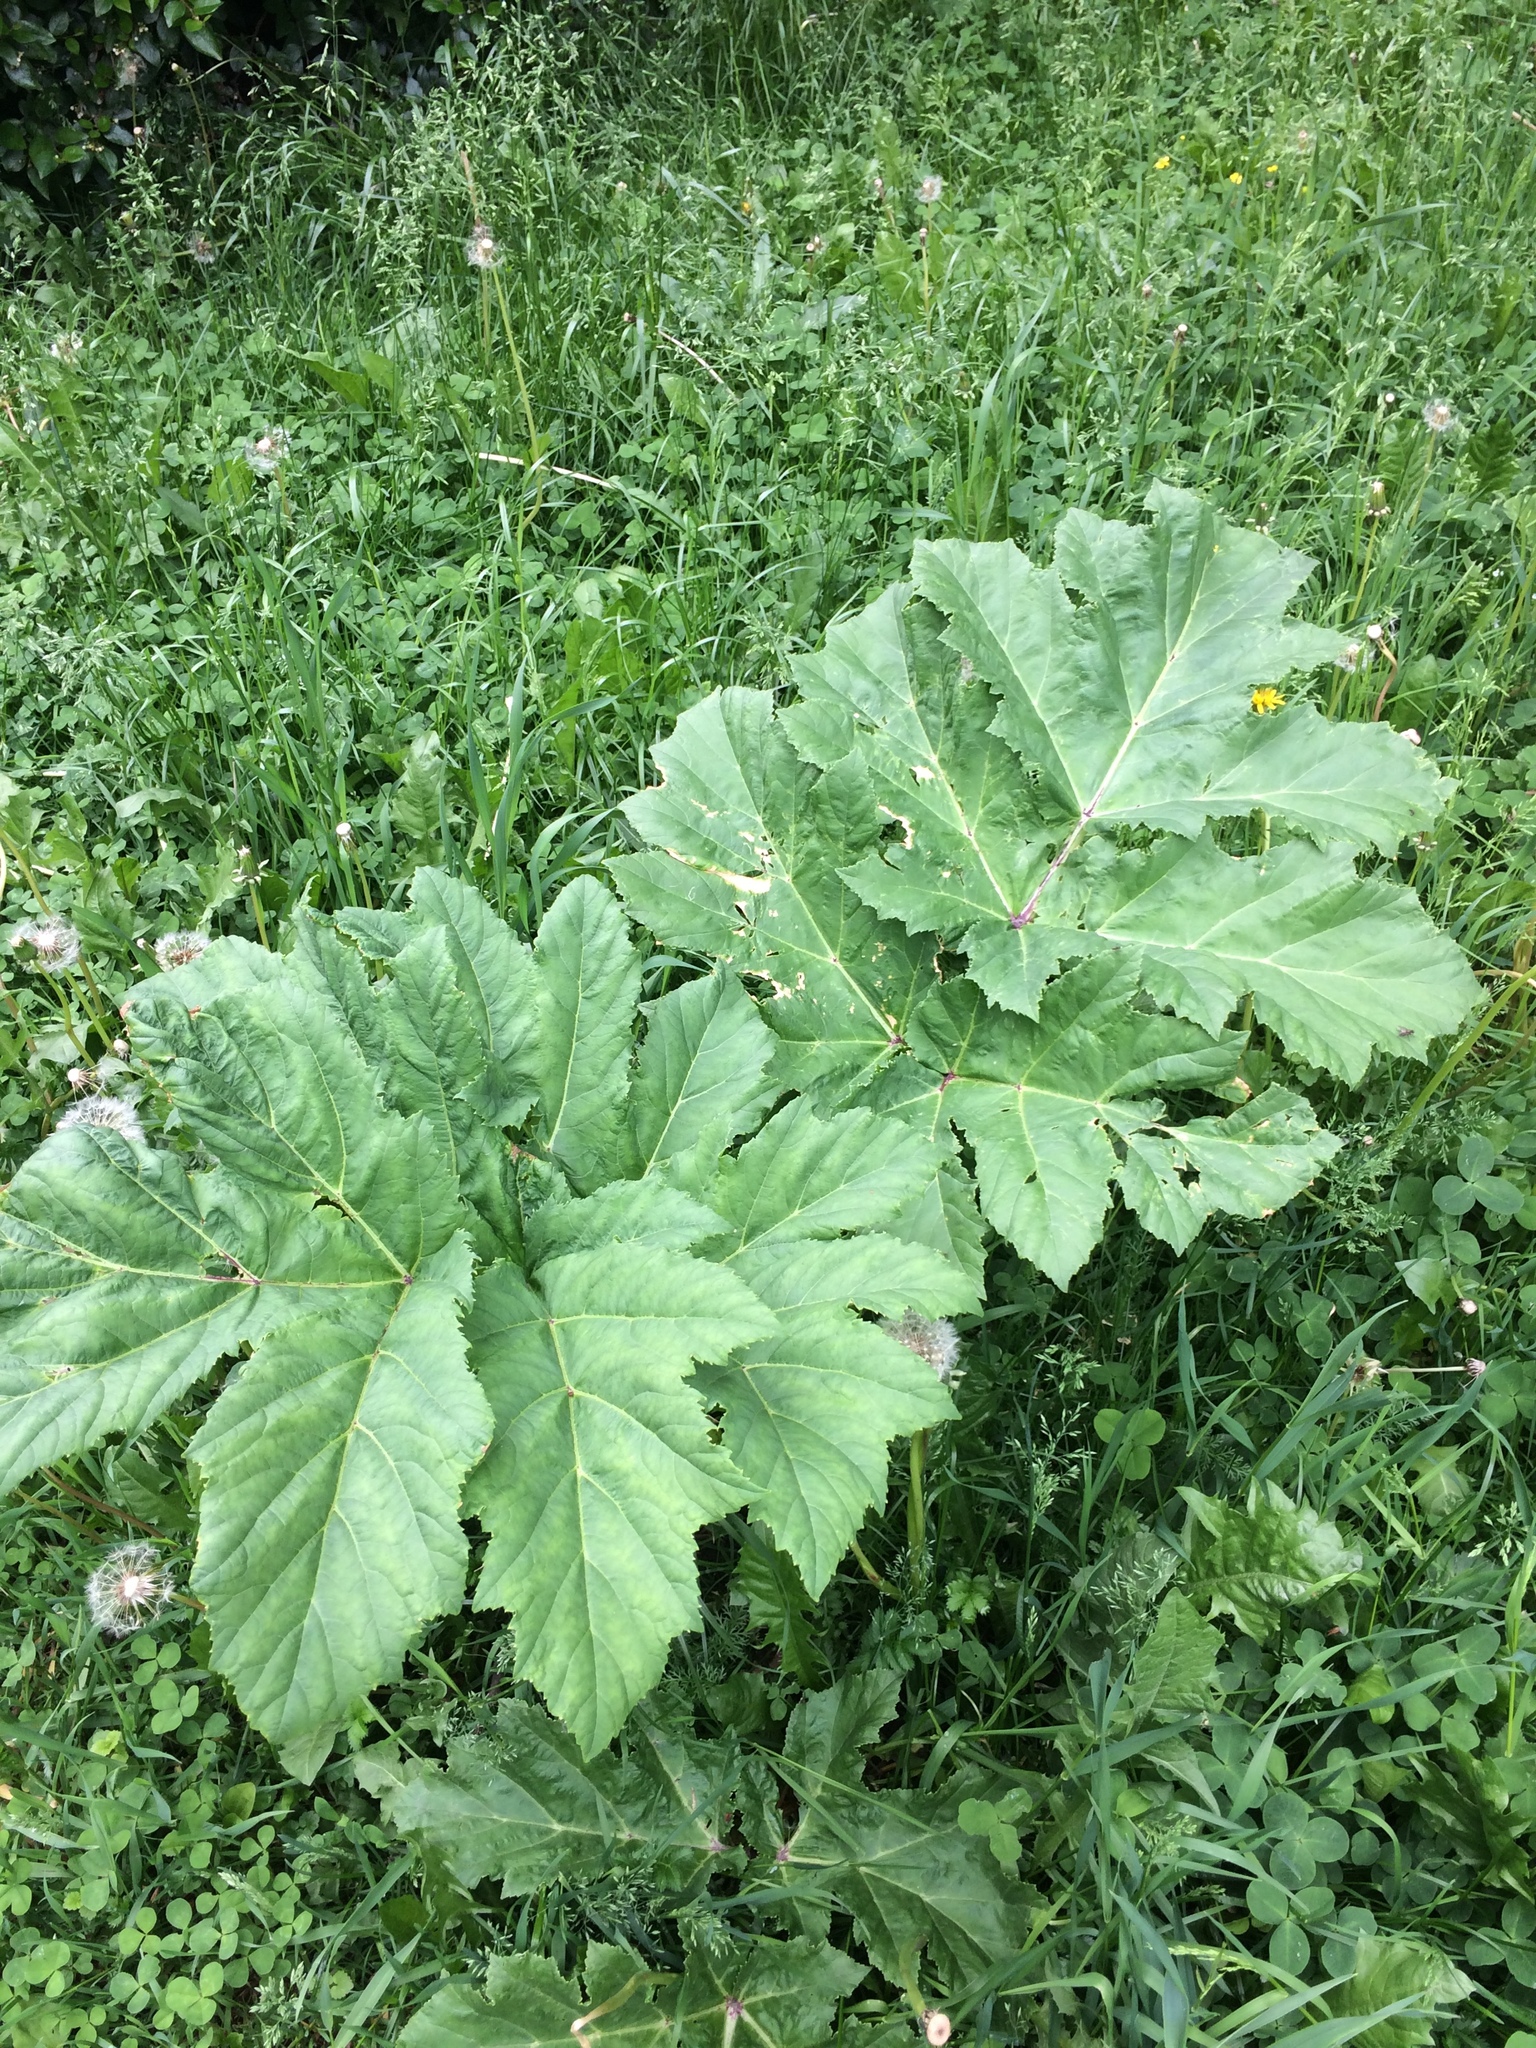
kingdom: Plantae
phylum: Tracheophyta
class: Magnoliopsida
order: Apiales
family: Apiaceae
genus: Heracleum
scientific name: Heracleum sosnowskyi
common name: Sosnowsky's hogweed
